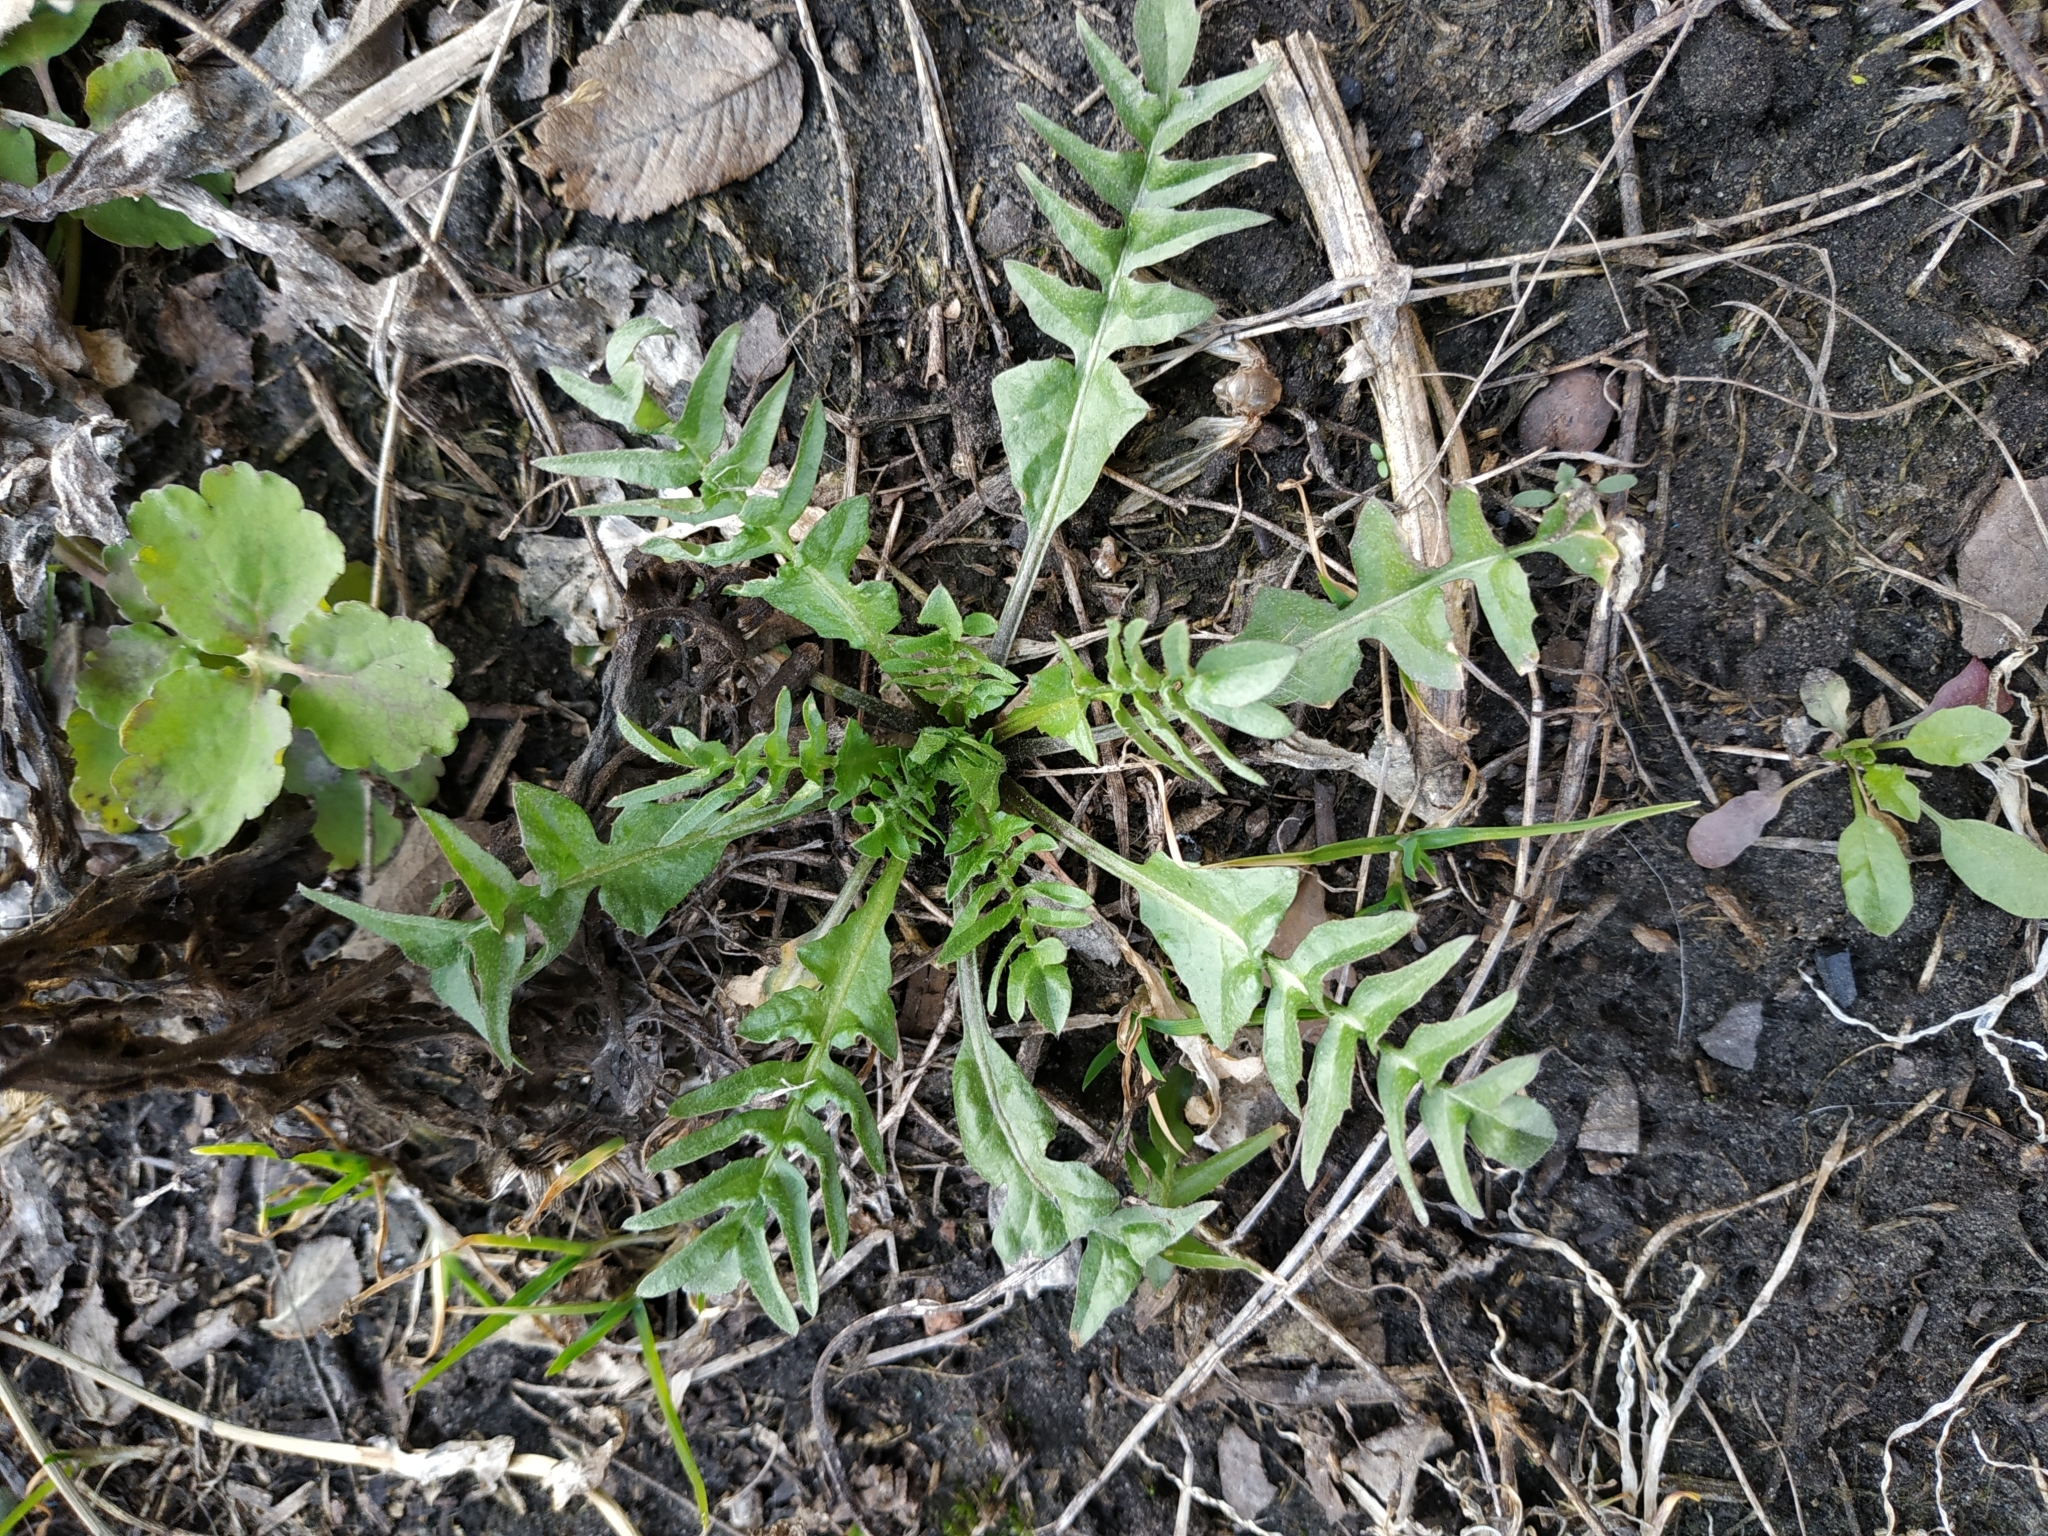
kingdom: Plantae
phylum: Tracheophyta
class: Magnoliopsida
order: Brassicales
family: Brassicaceae
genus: Capsella
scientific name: Capsella bursa-pastoris
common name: Shepherd's purse
